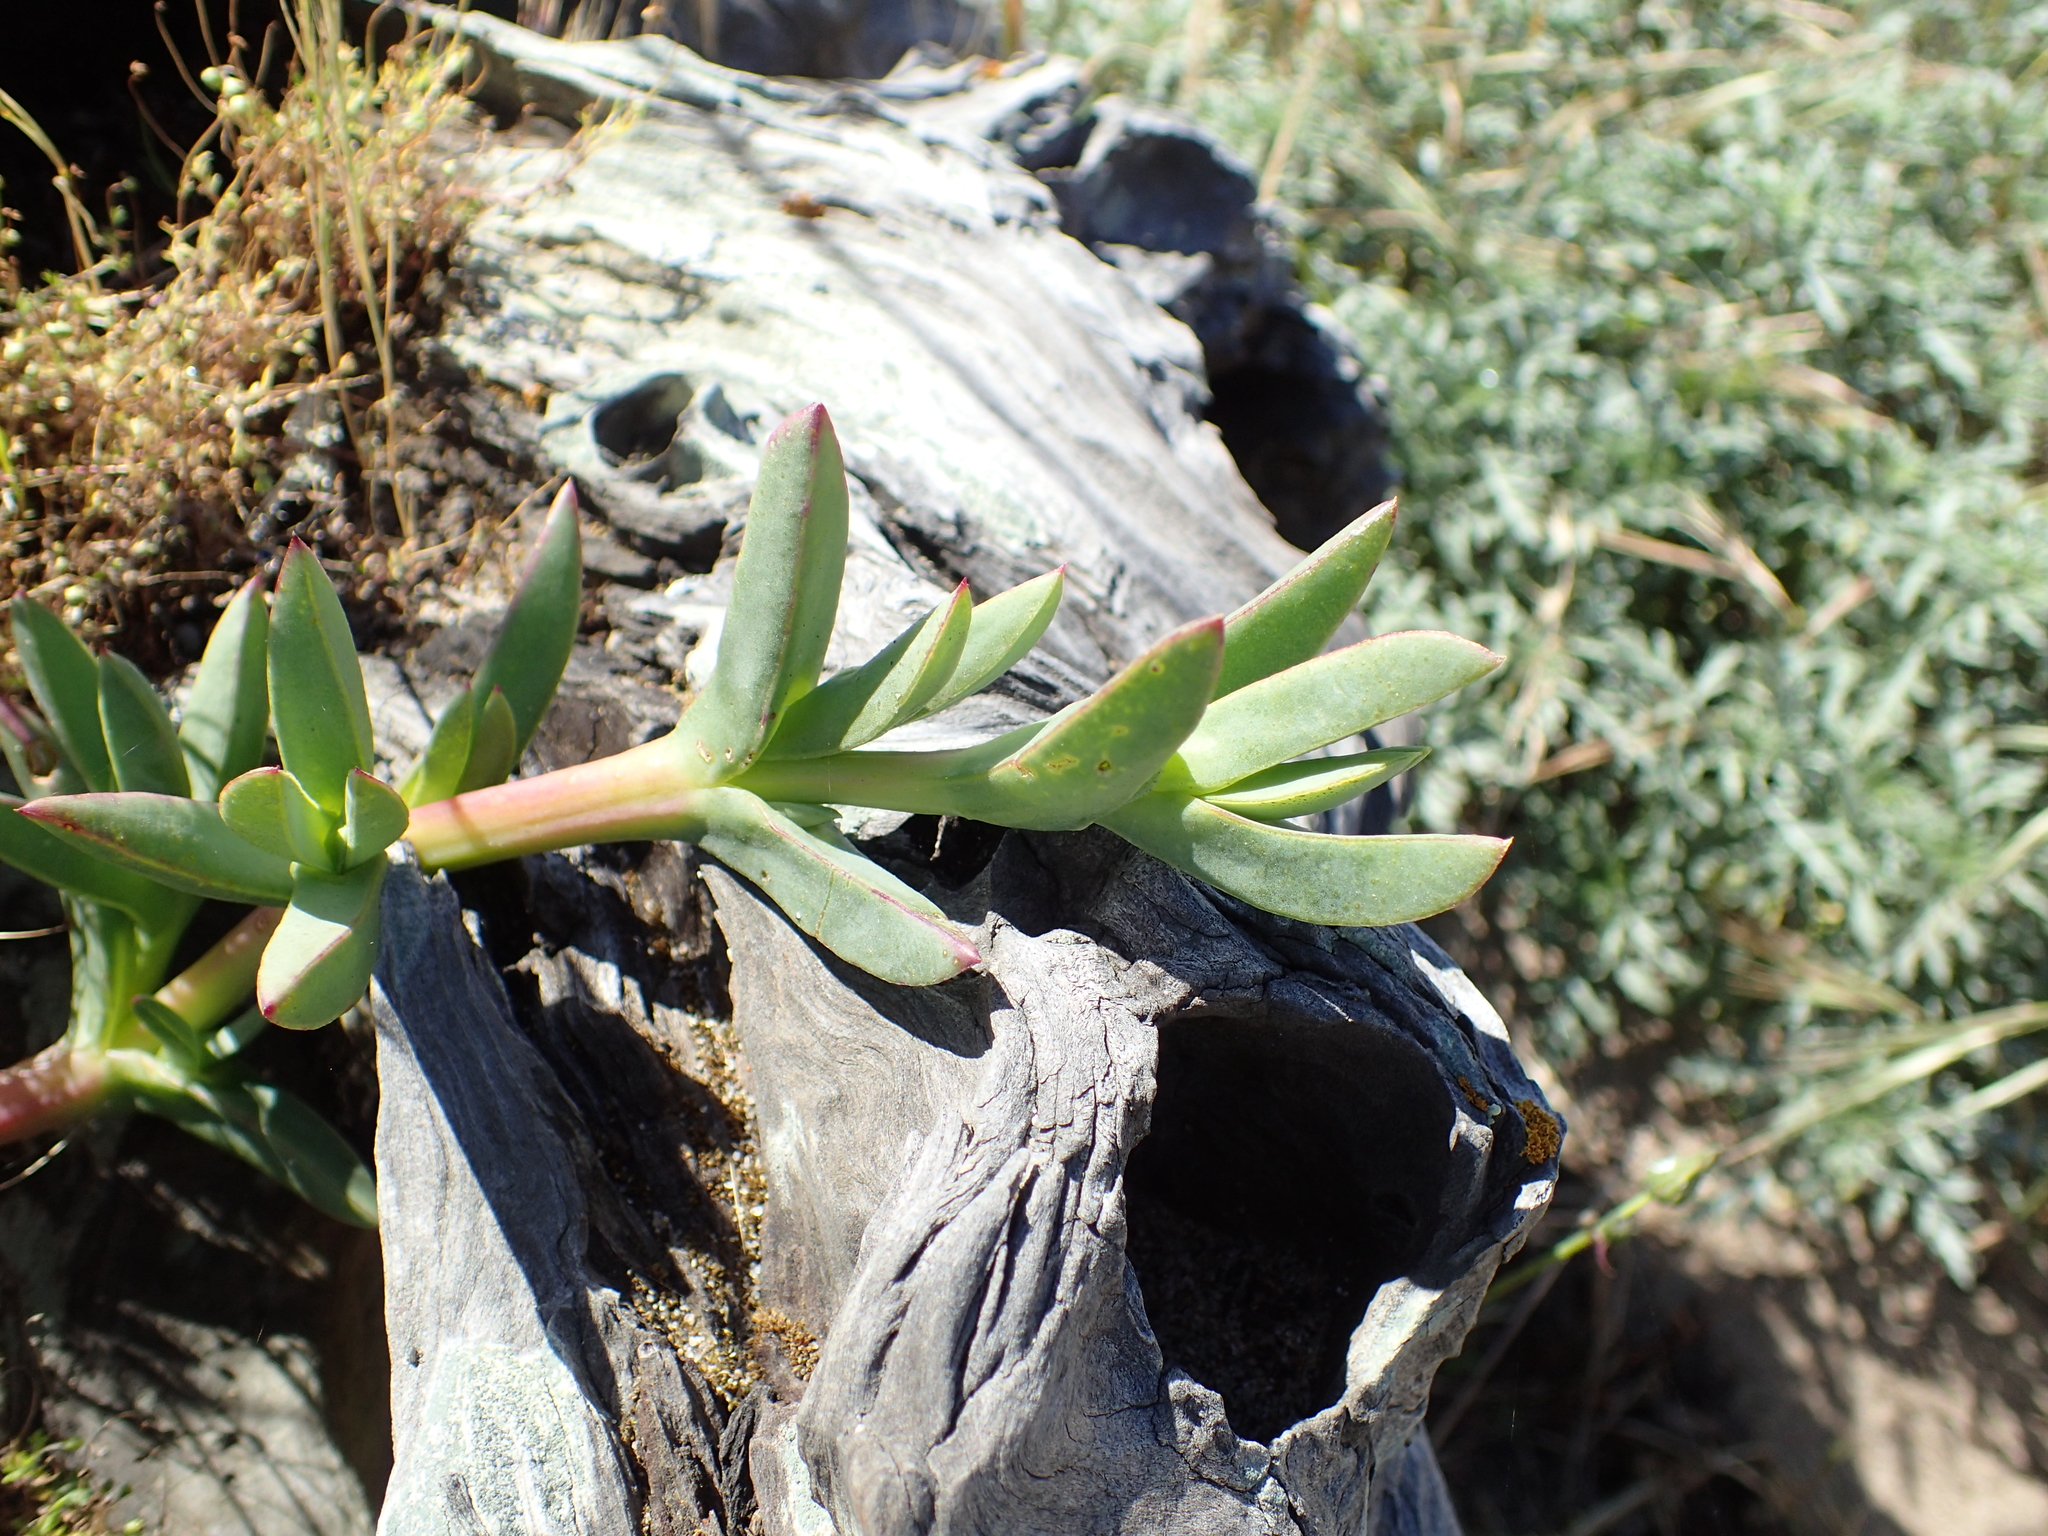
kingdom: Plantae
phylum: Tracheophyta
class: Magnoliopsida
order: Caryophyllales
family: Aizoaceae
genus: Carpobrotus
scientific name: Carpobrotus chilensis
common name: Sea fig
